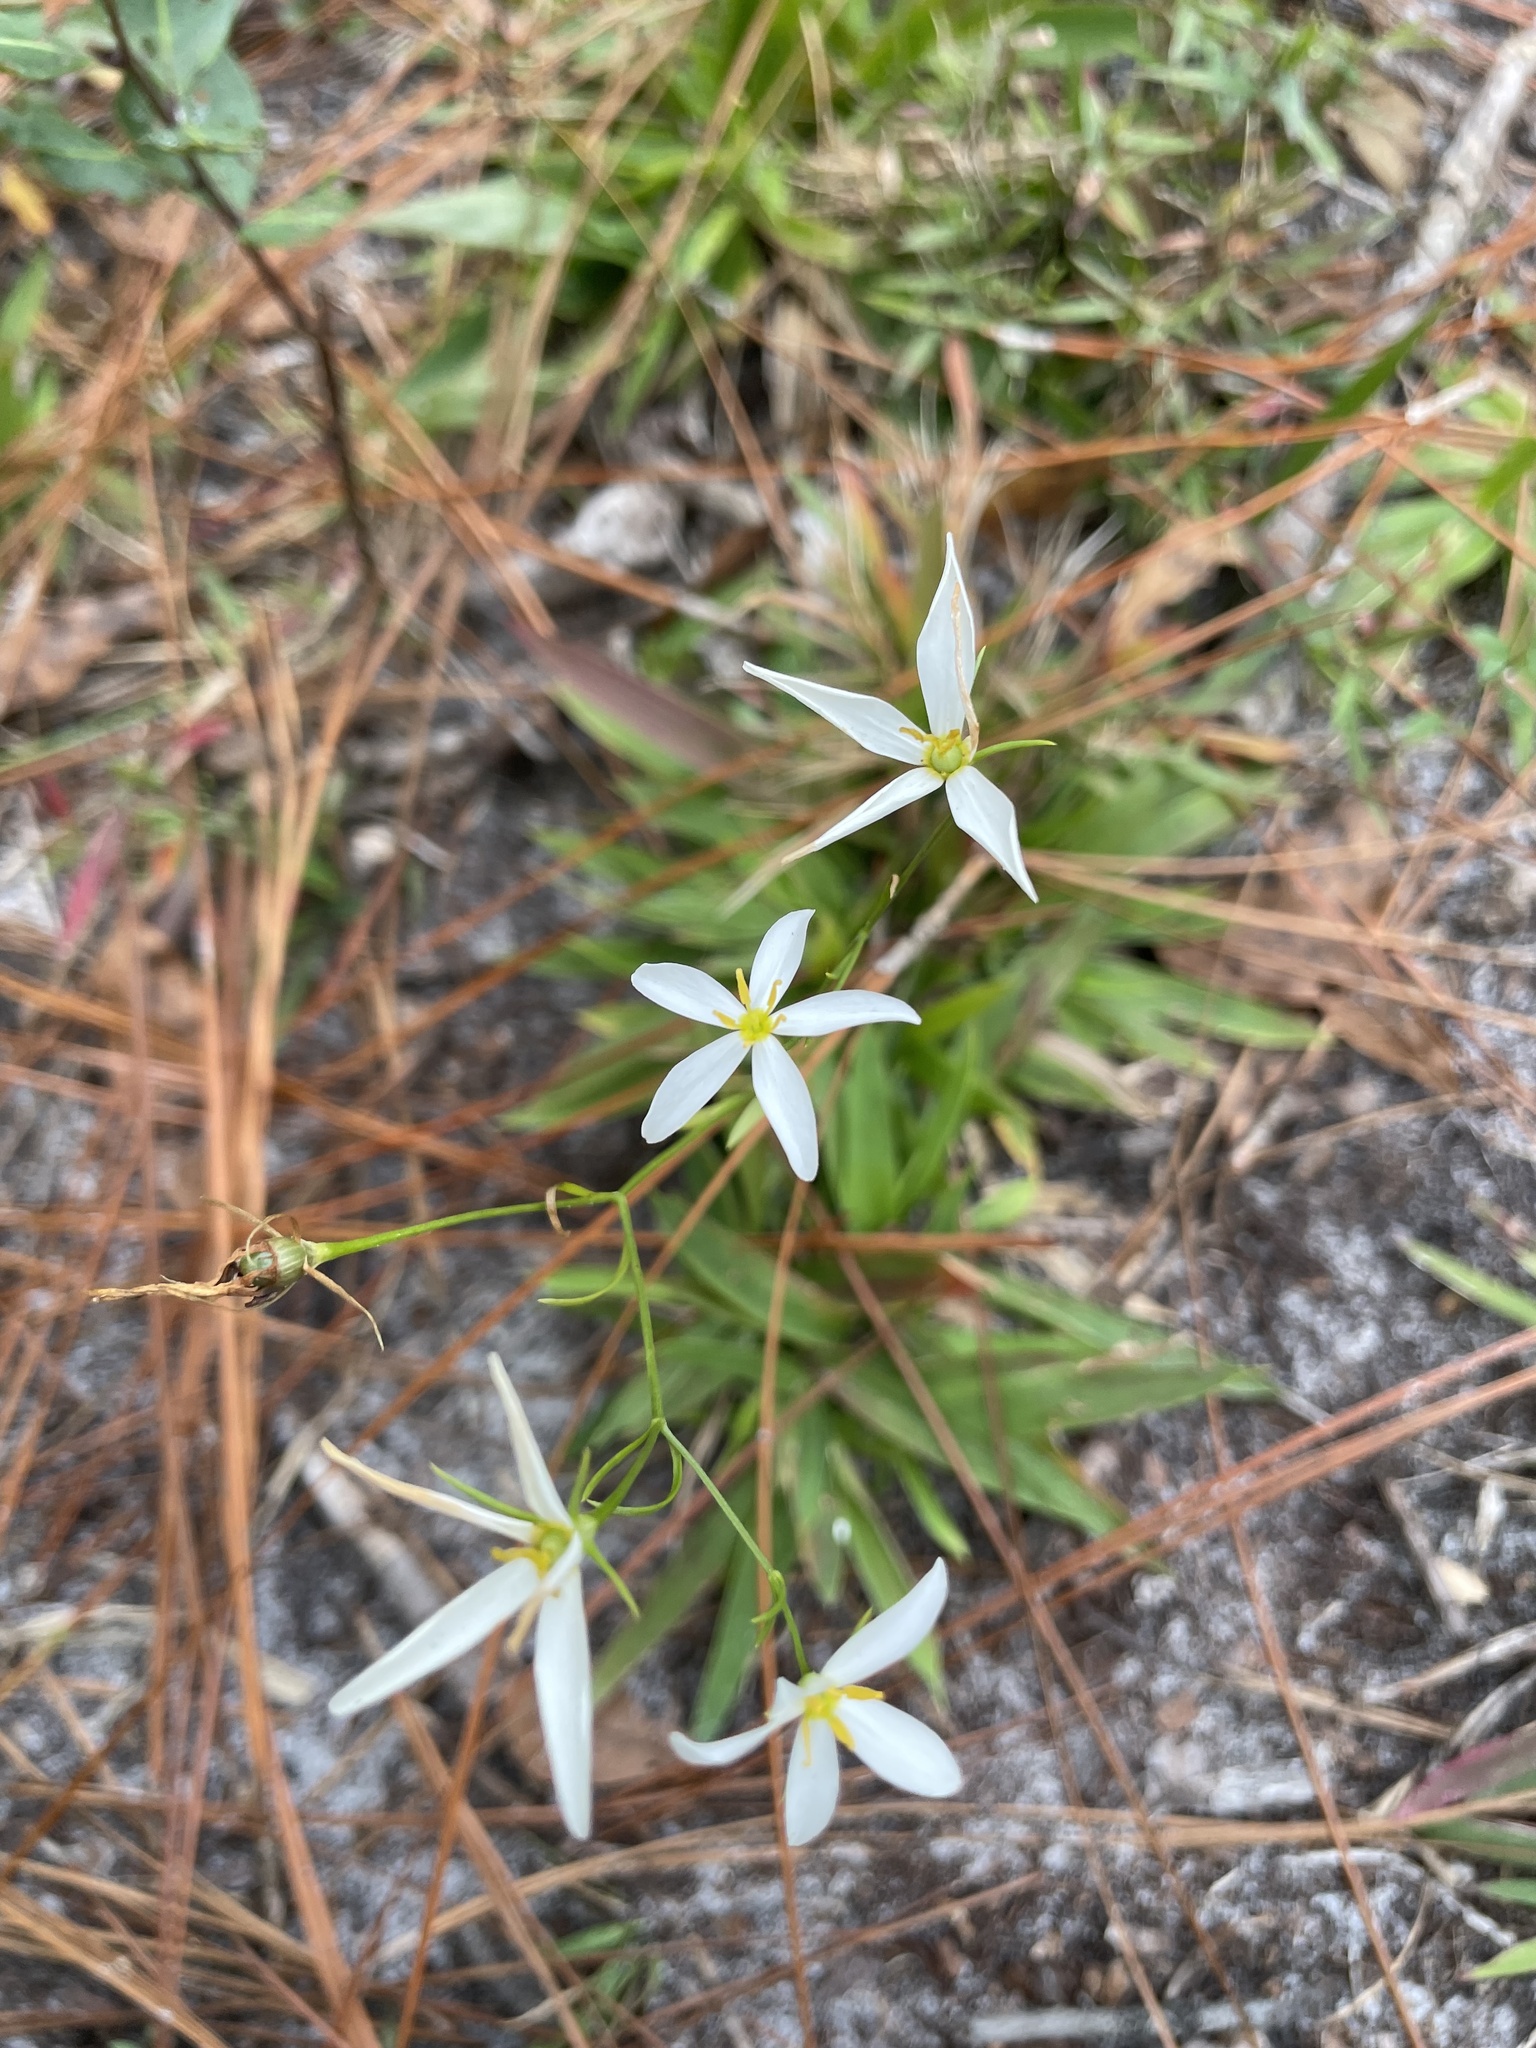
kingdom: Plantae
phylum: Tracheophyta
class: Magnoliopsida
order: Gentianales
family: Gentianaceae
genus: Sabatia
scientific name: Sabatia brevifolia
